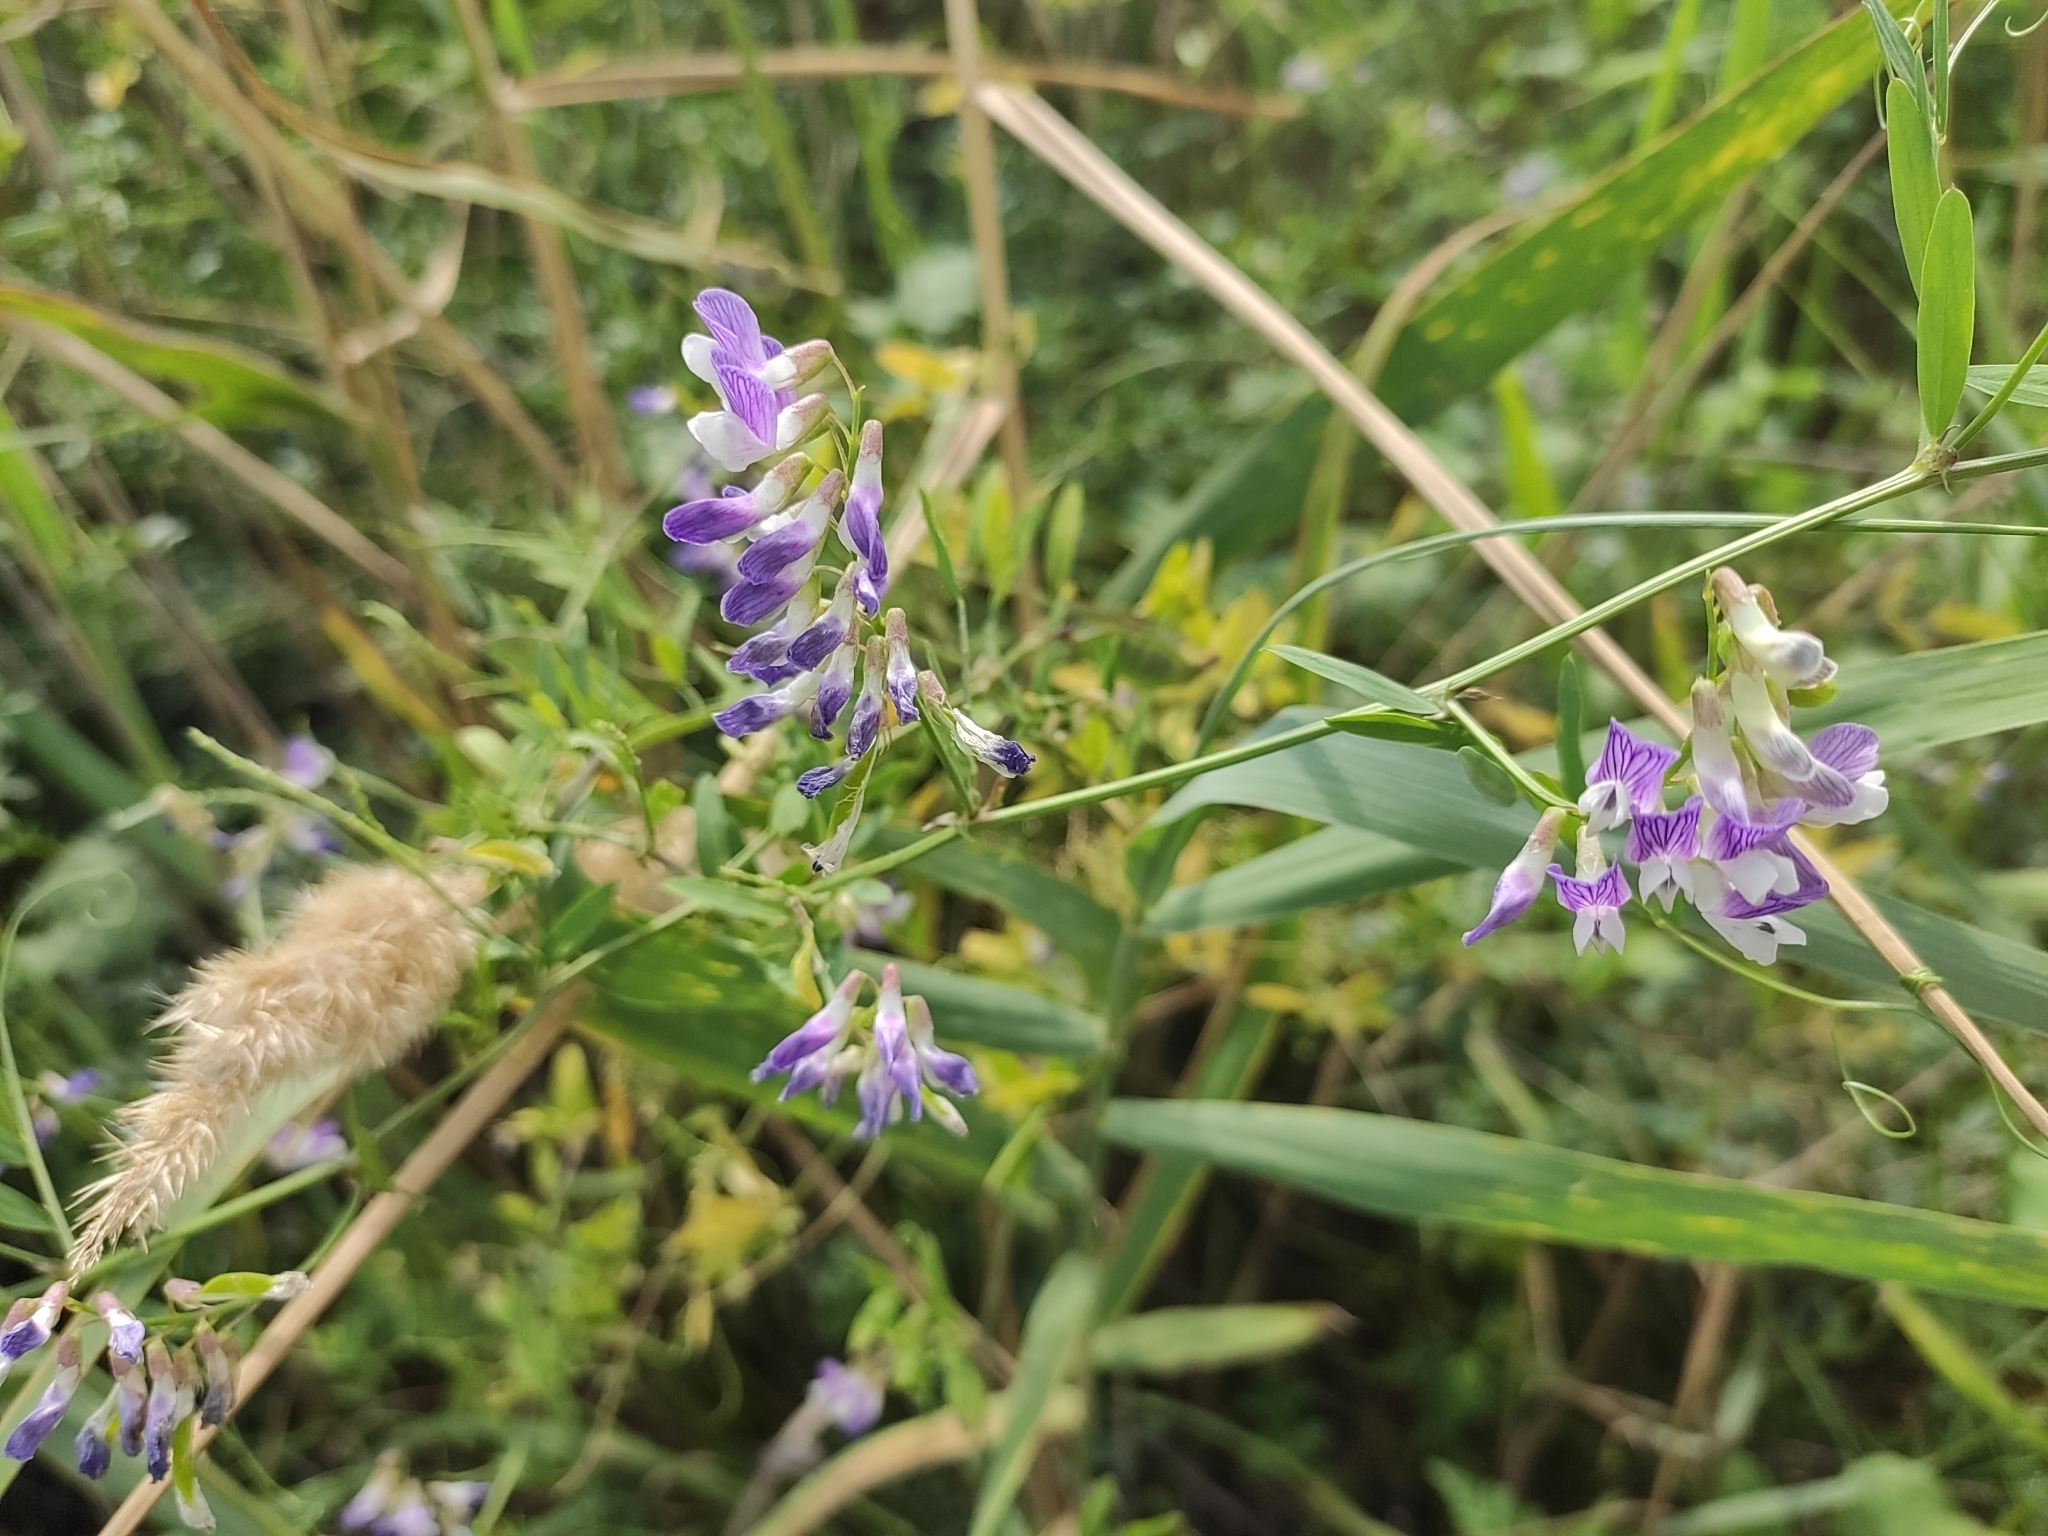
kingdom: Plantae
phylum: Tracheophyta
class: Magnoliopsida
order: Fabales
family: Fabaceae
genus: Vicia
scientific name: Vicia villosa
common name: Fodder vetch
